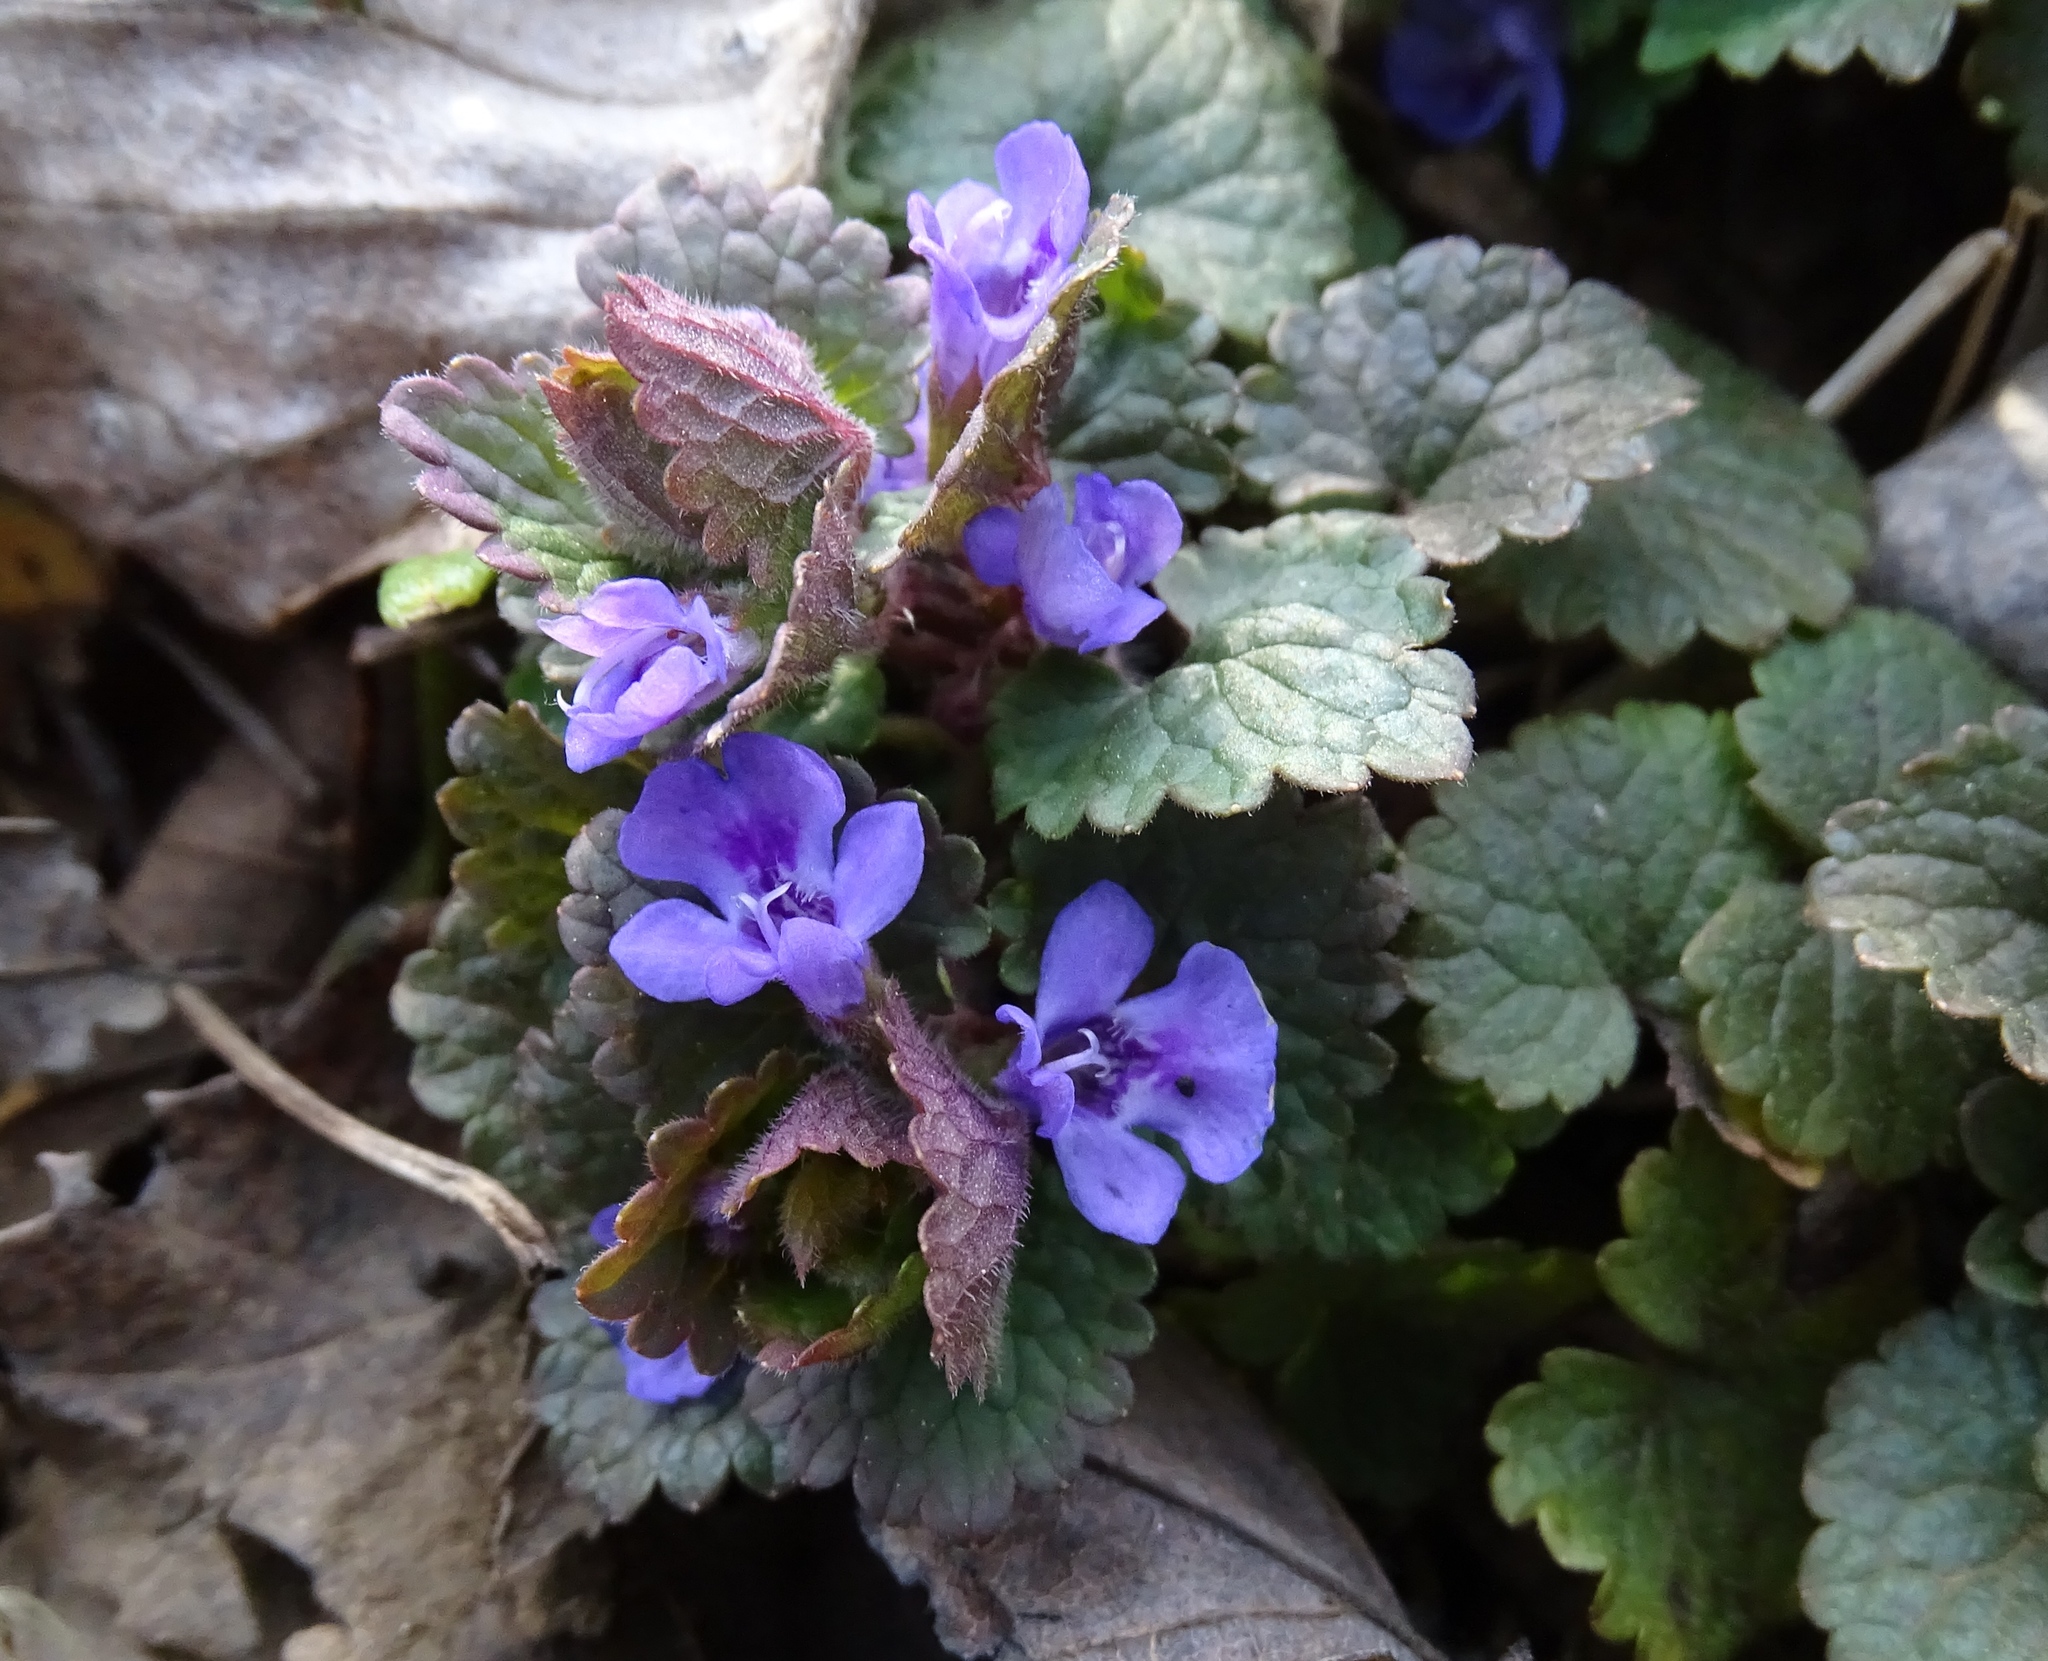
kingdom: Plantae
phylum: Tracheophyta
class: Magnoliopsida
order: Lamiales
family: Lamiaceae
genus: Glechoma
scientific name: Glechoma hederacea
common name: Ground ivy
